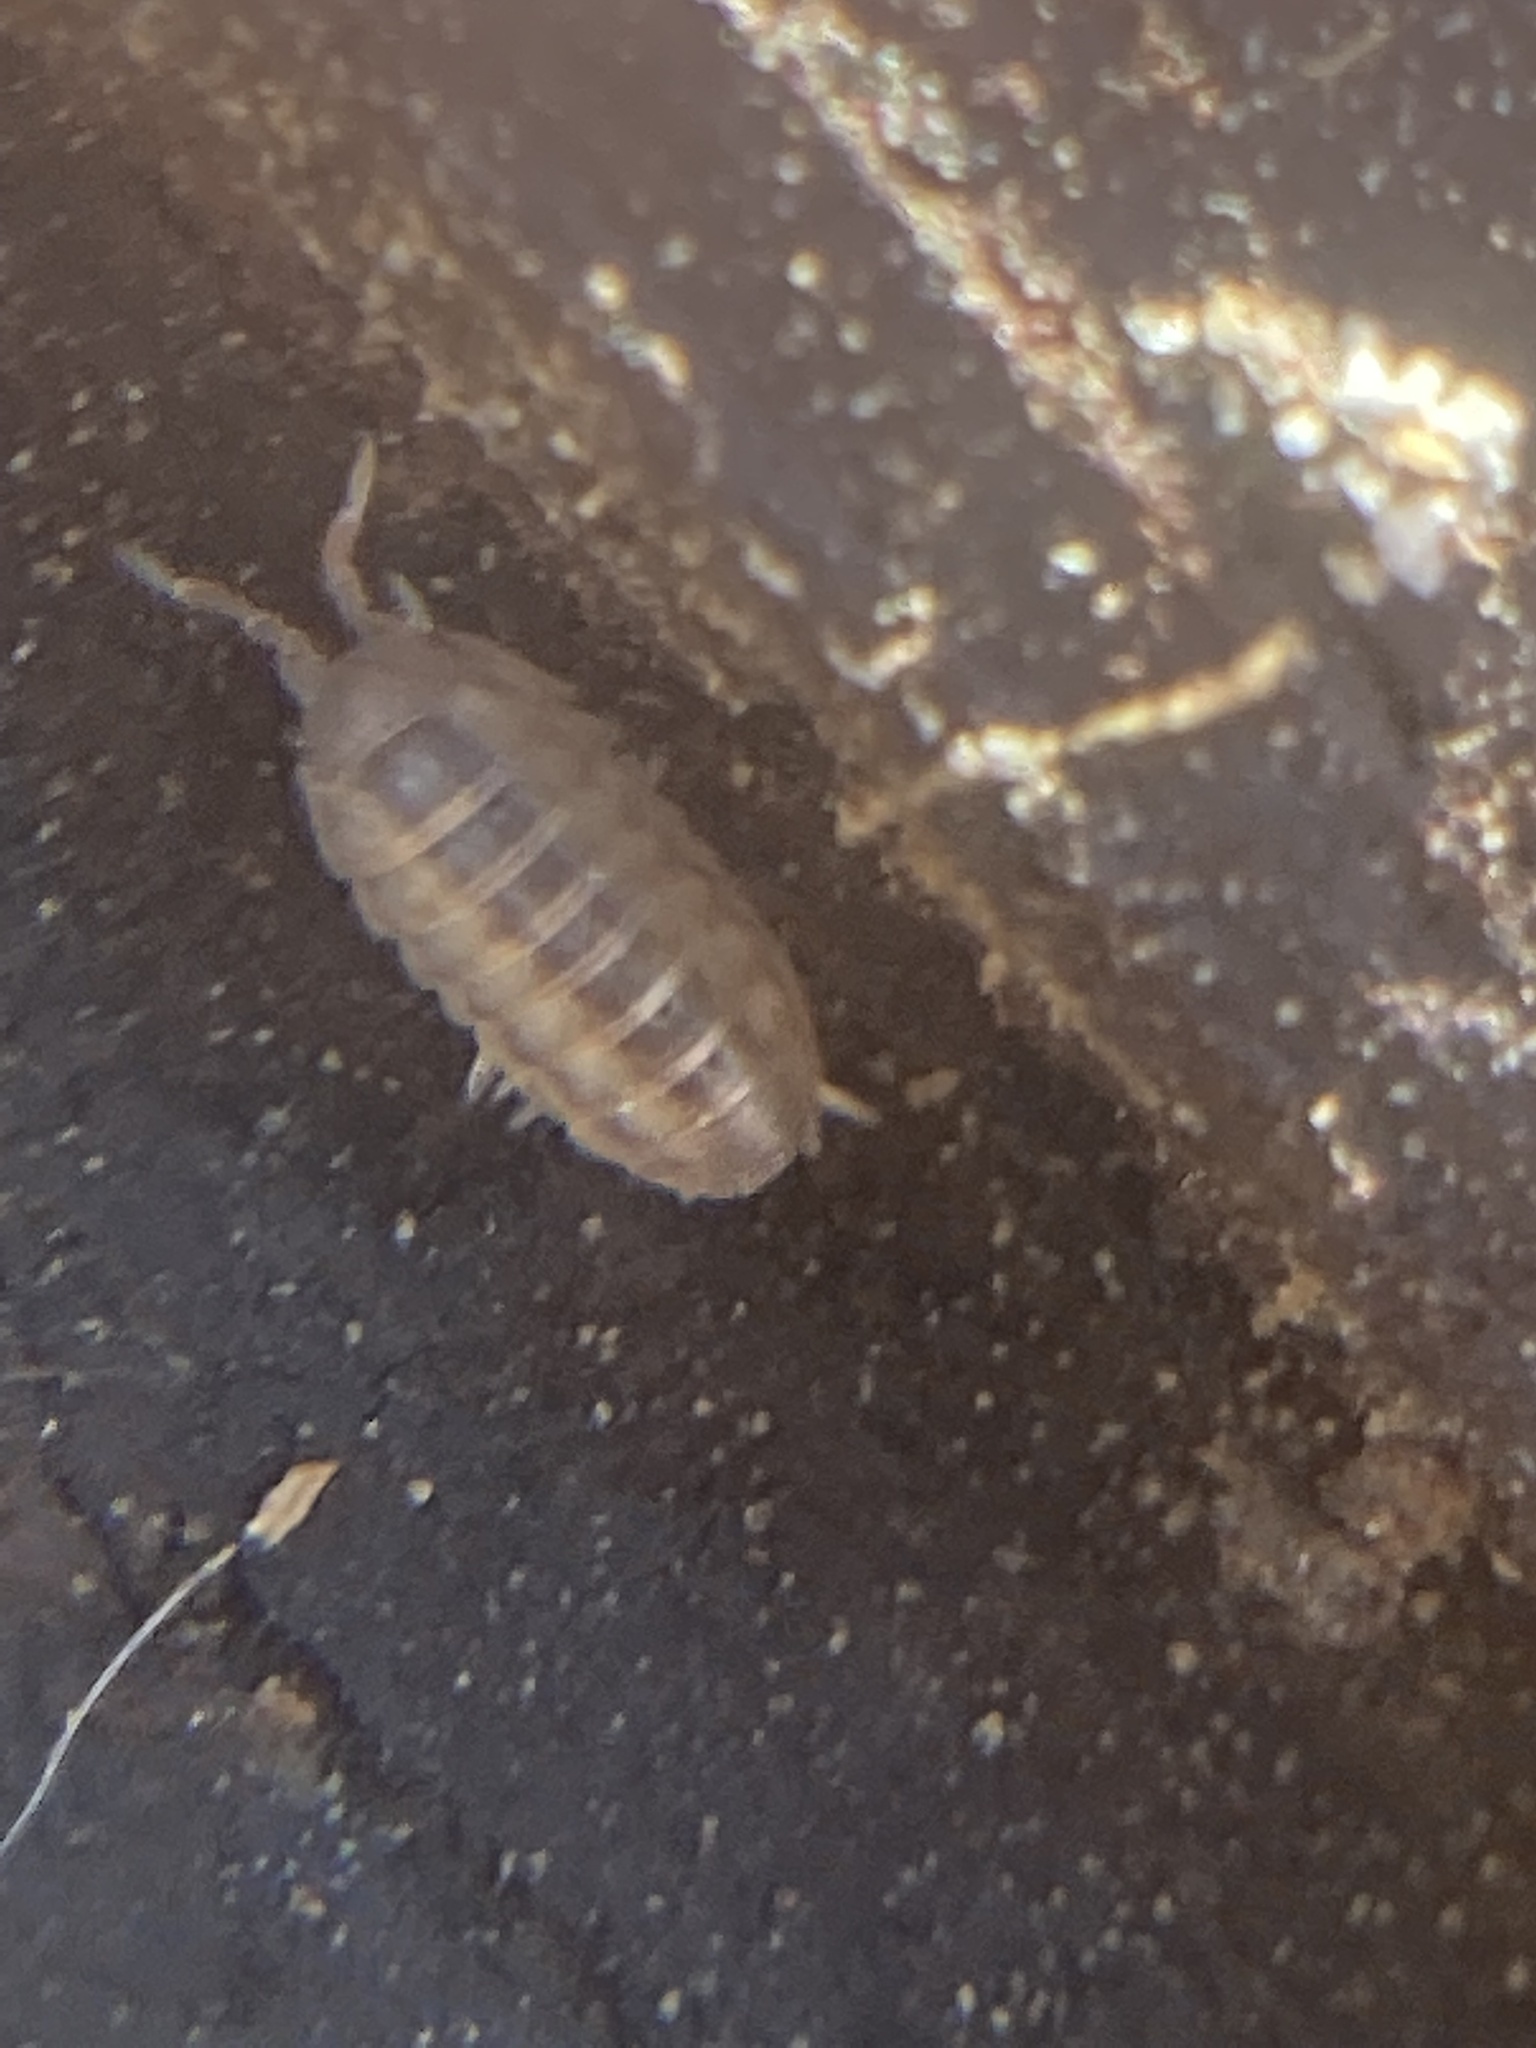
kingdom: Animalia
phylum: Arthropoda
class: Malacostraca
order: Isopoda
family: Armadillidiidae
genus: Armadillidium
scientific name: Armadillidium vulgare
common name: Common pill woodlouse
